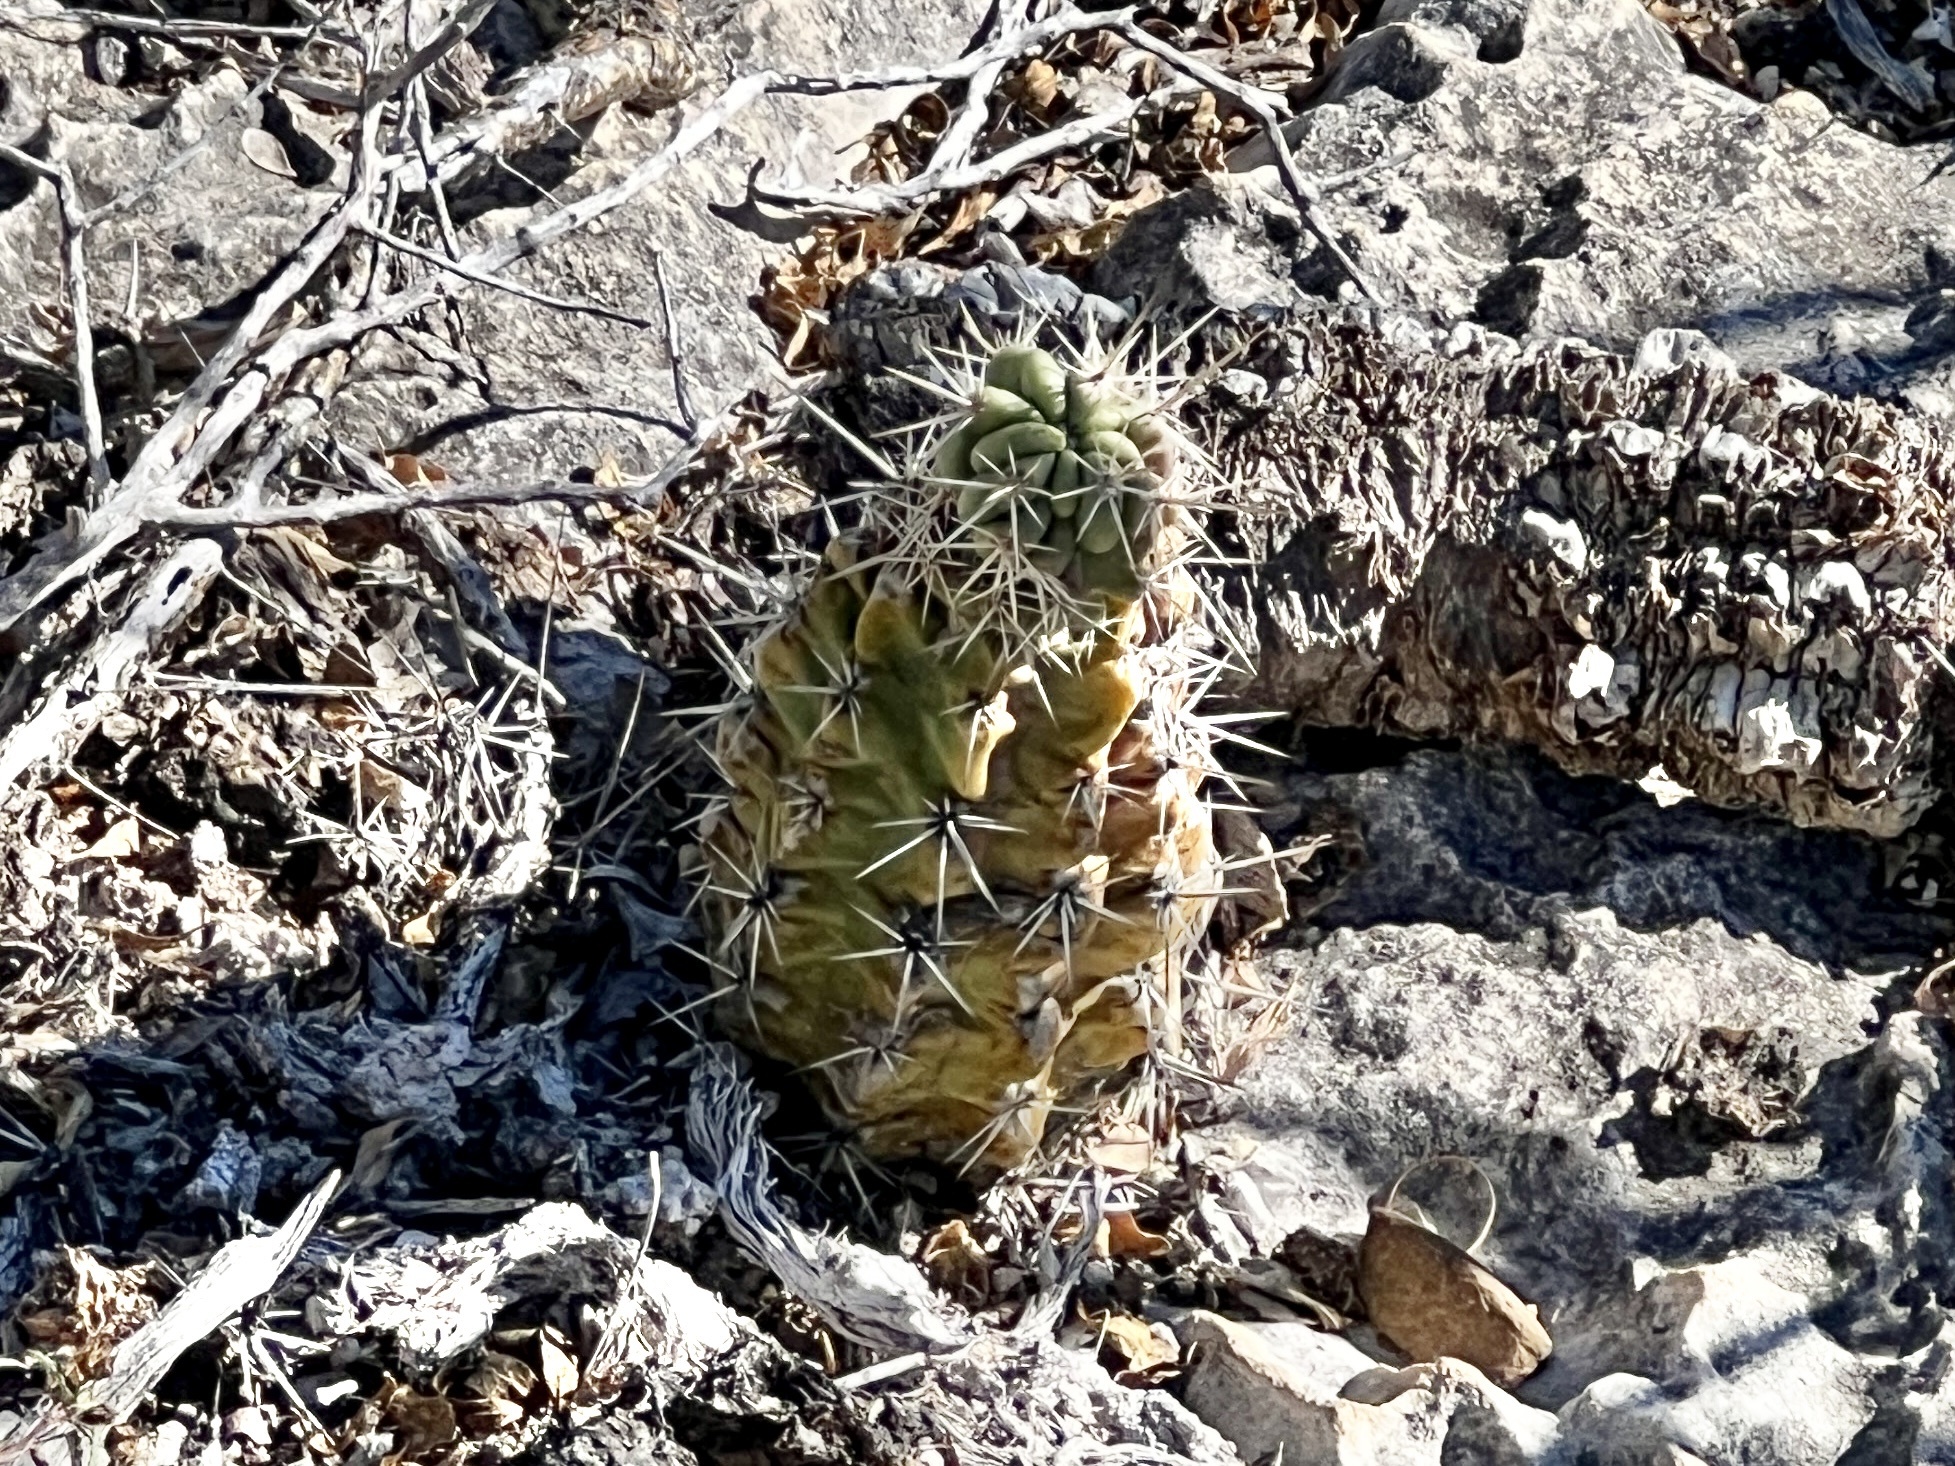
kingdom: Plantae
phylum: Tracheophyta
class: Magnoliopsida
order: Caryophyllales
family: Cactaceae
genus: Echinocereus
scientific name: Echinocereus enneacanthus
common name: Pitaya
